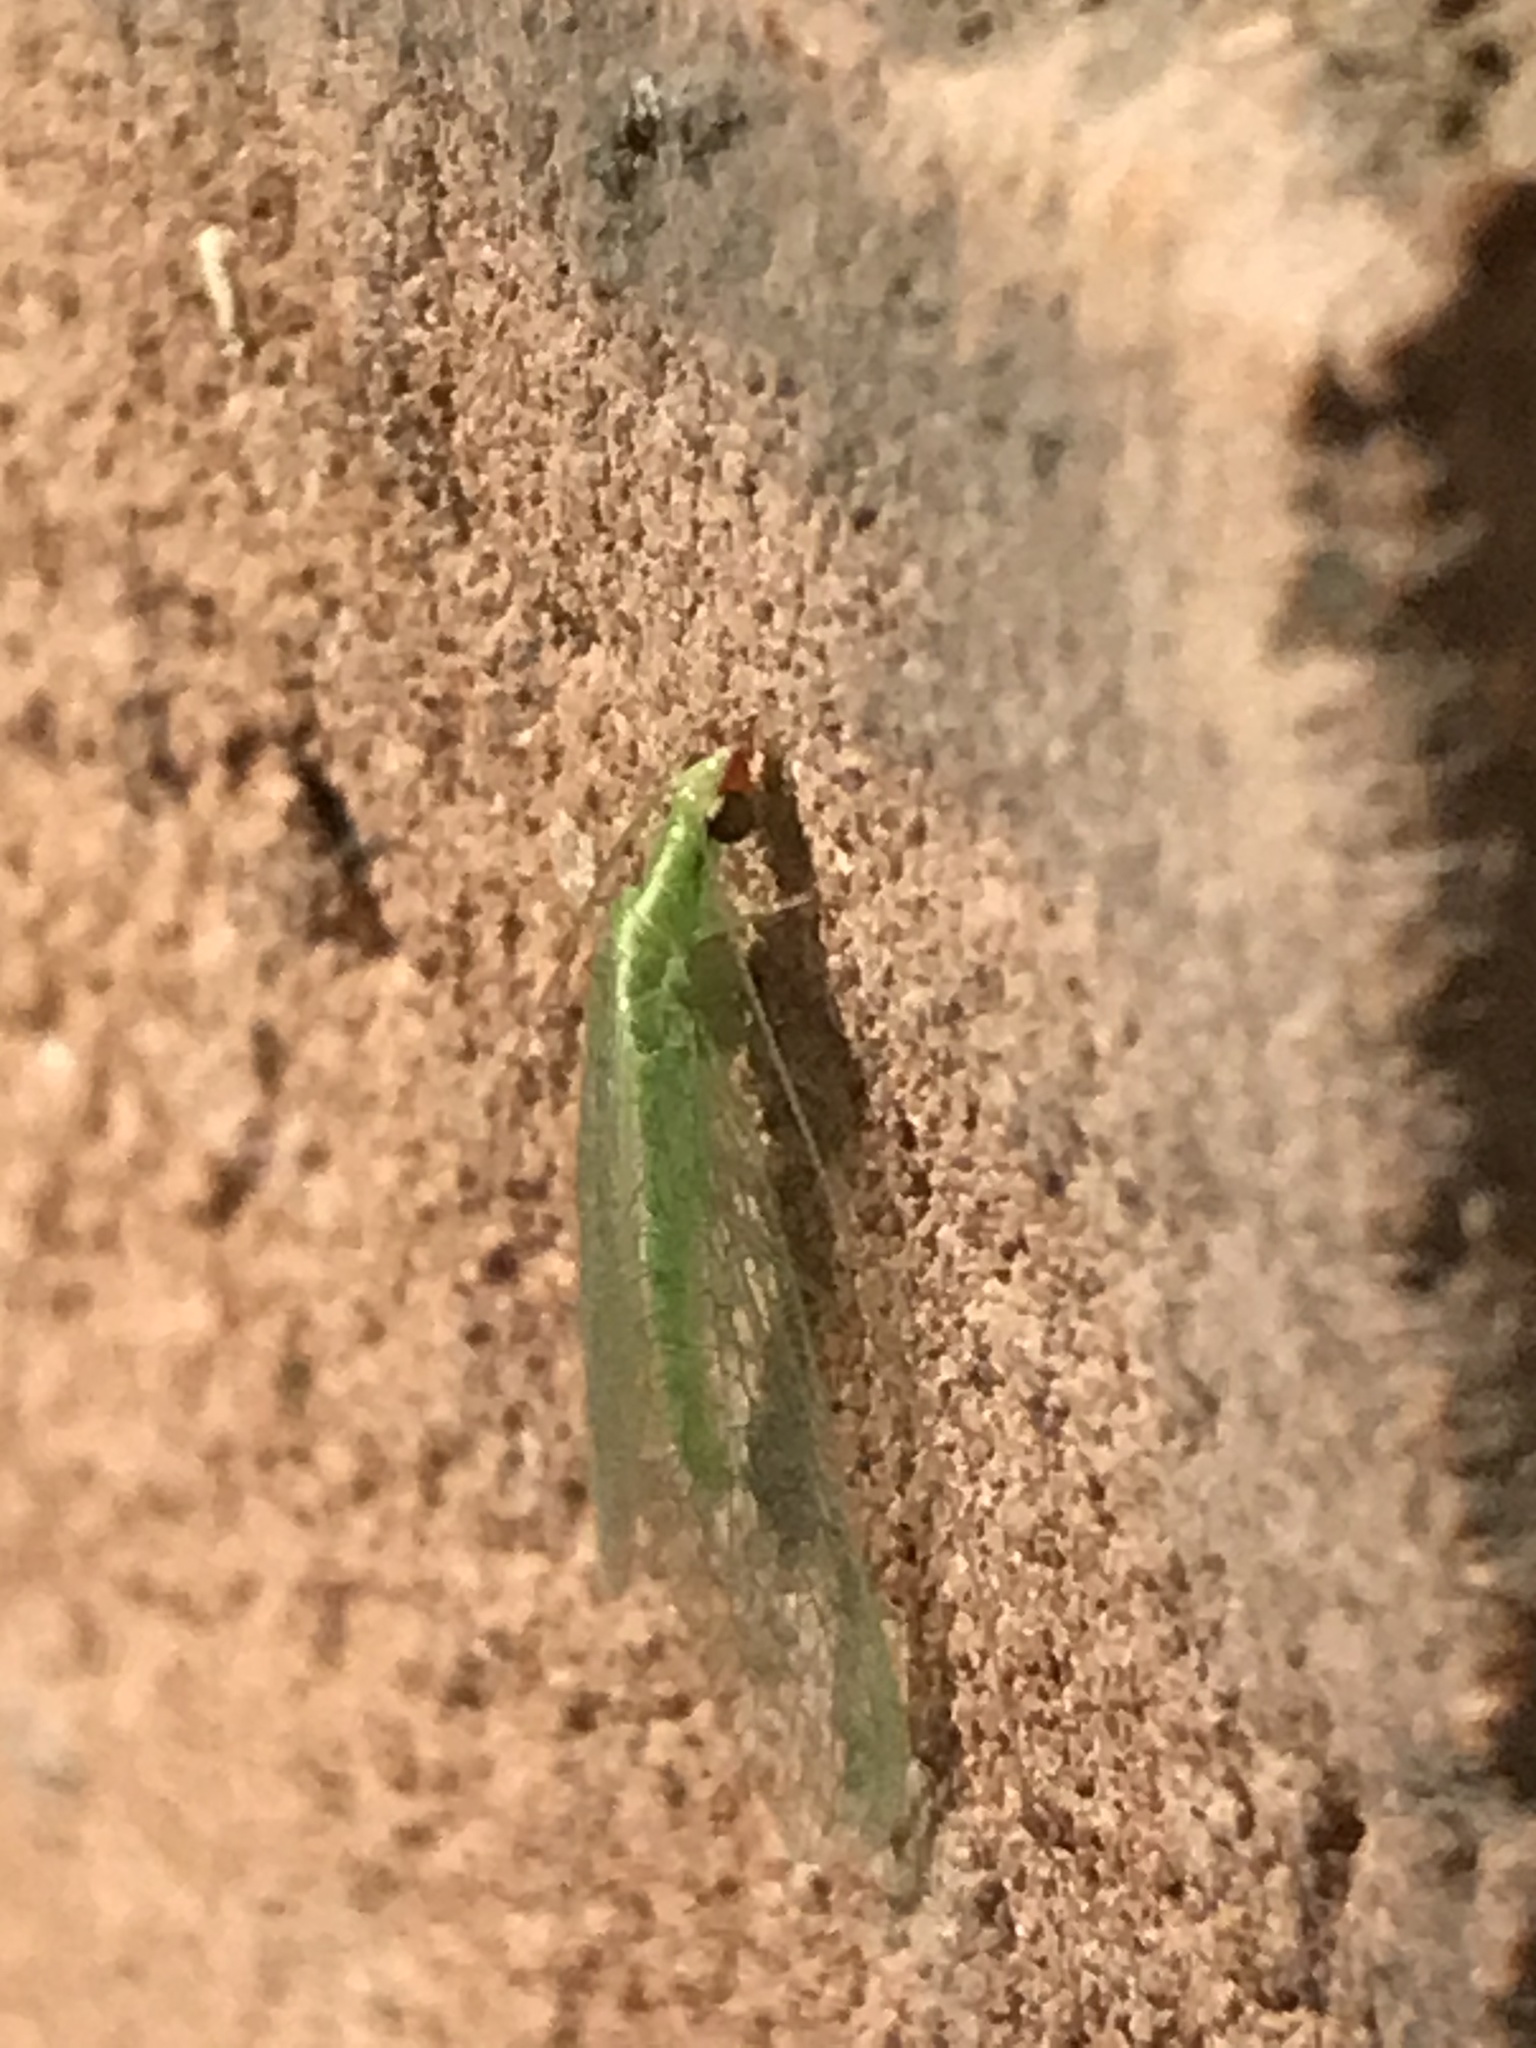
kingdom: Animalia
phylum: Arthropoda
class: Insecta
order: Neuroptera
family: Chrysopidae
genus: Chrysoperla
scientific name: Chrysoperla rufilabris
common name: Red-lipped green lacewing
